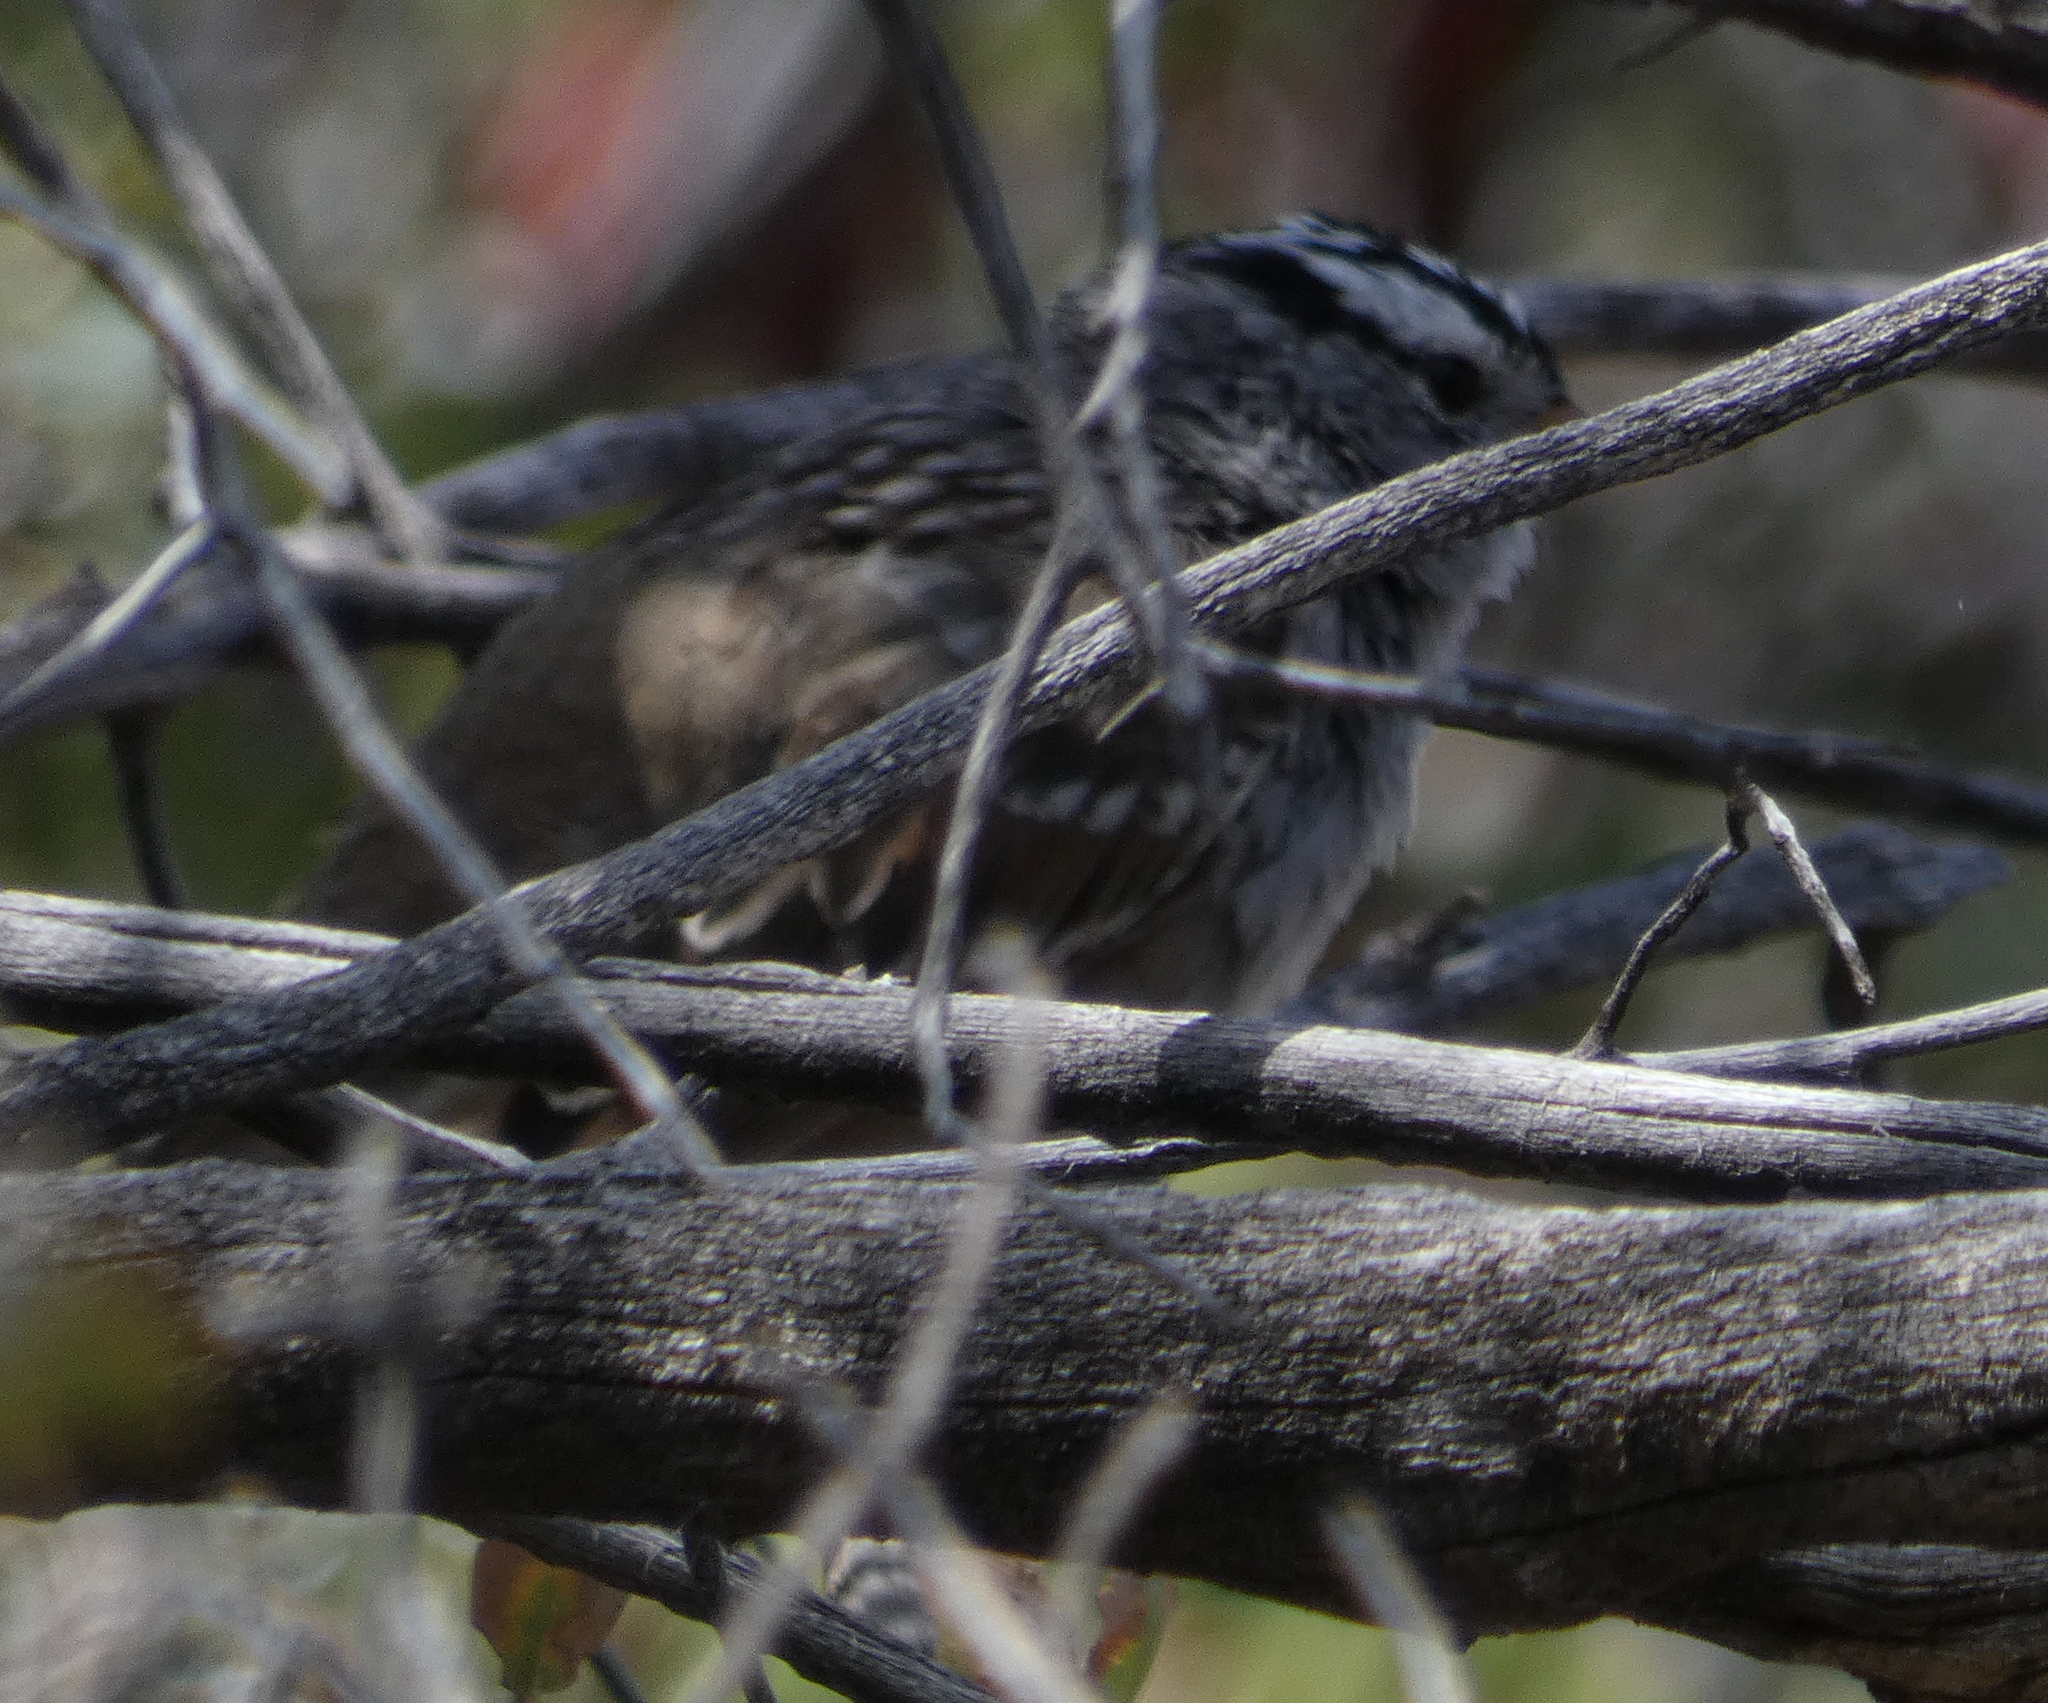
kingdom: Animalia
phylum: Chordata
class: Aves
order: Passeriformes
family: Passerellidae
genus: Zonotrichia
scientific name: Zonotrichia leucophrys
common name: White-crowned sparrow
